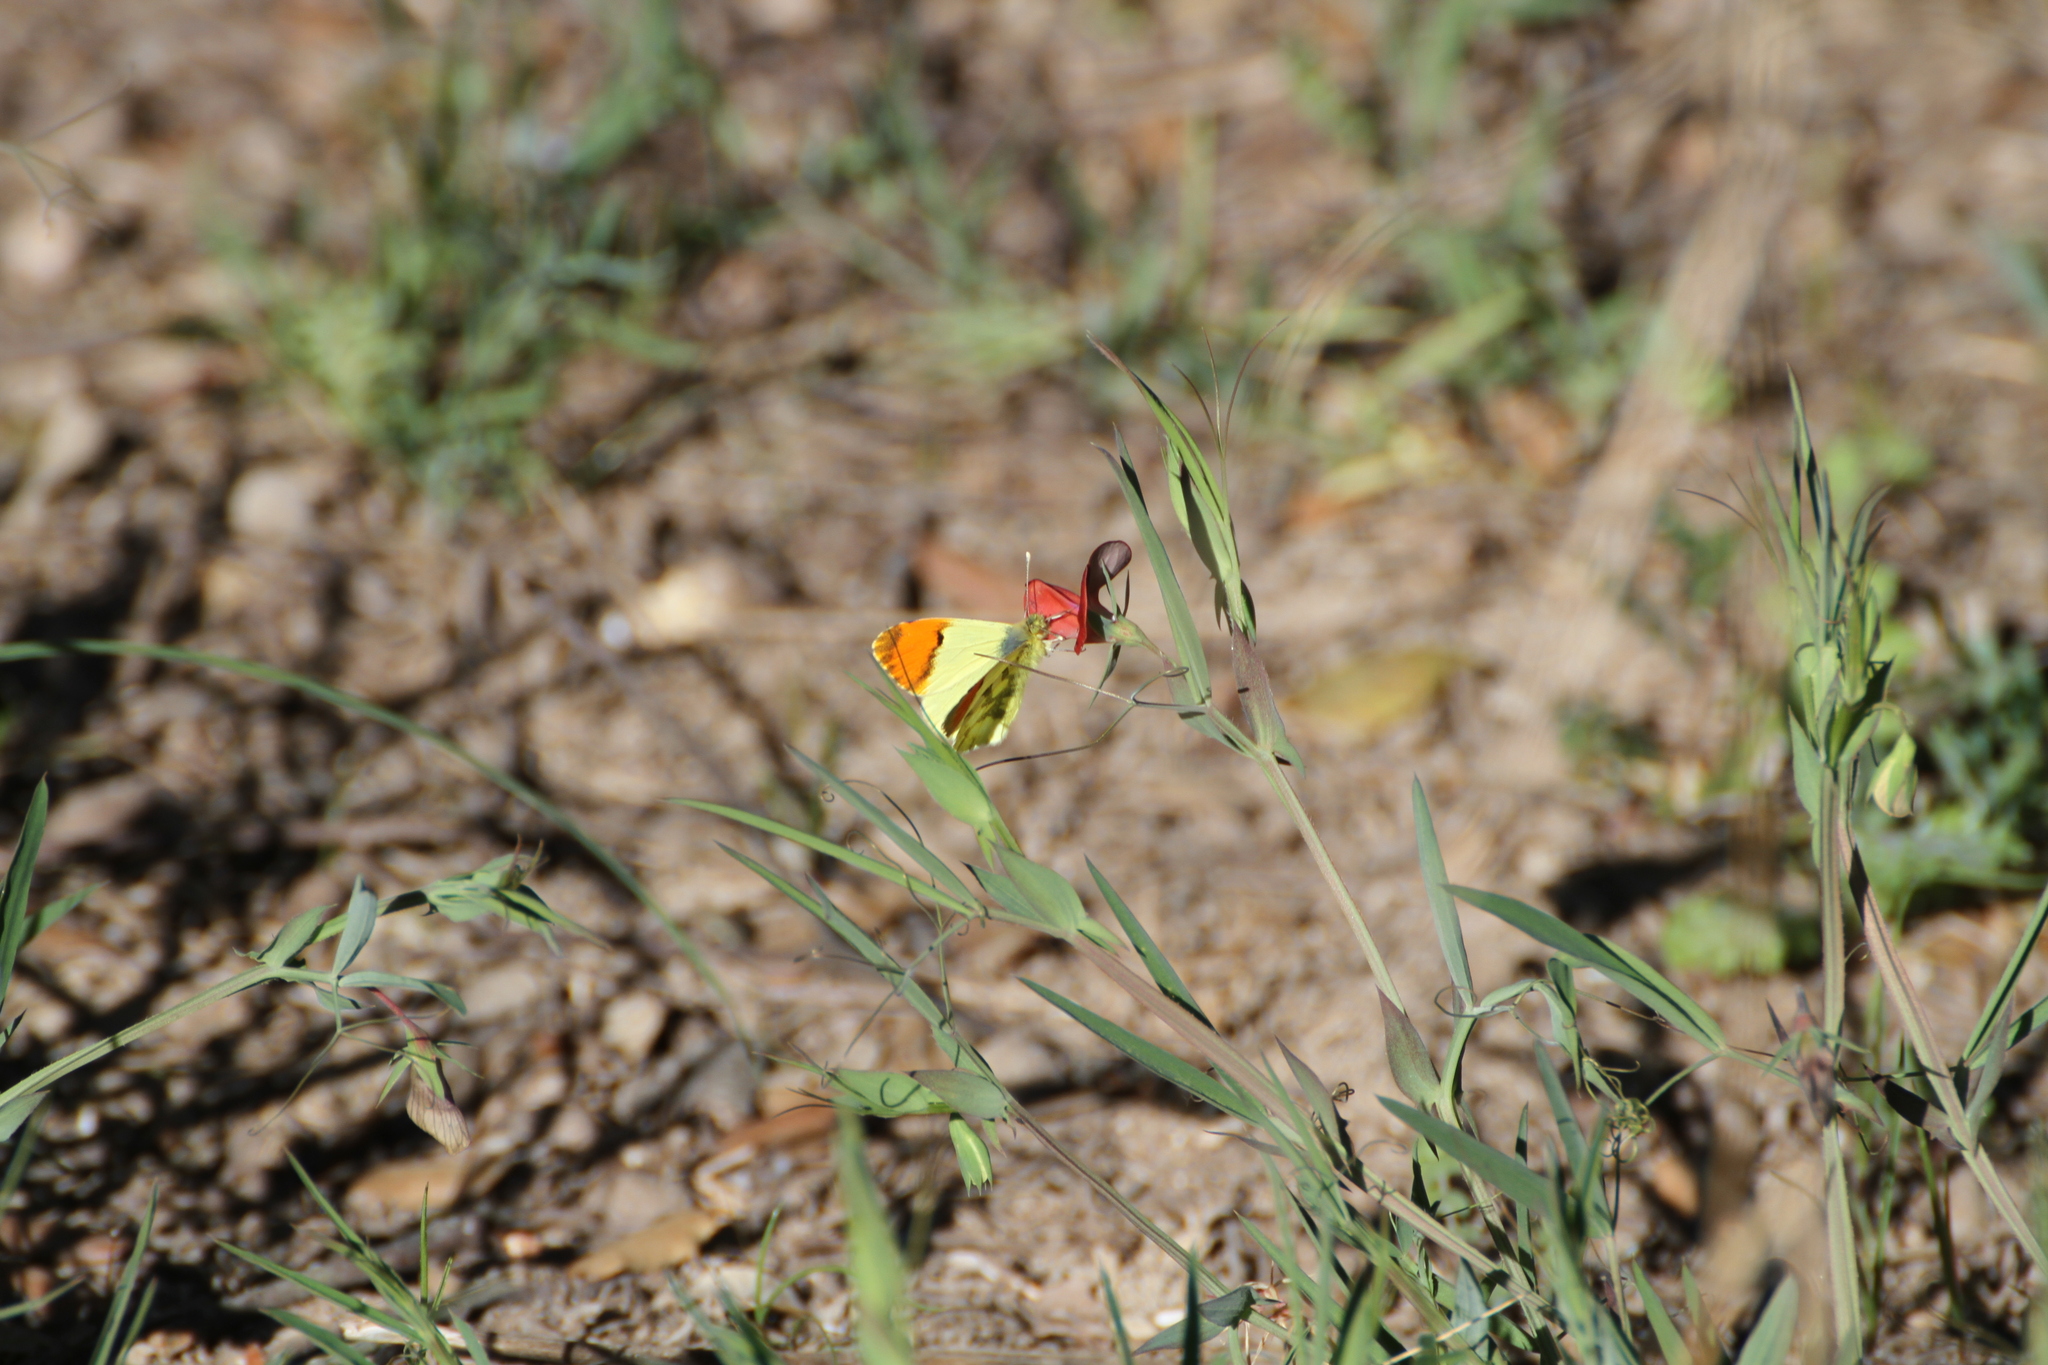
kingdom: Animalia
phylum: Arthropoda
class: Insecta
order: Lepidoptera
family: Pieridae
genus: Anthocharis
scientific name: Anthocharis euphenoides
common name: Provence orange-tip
